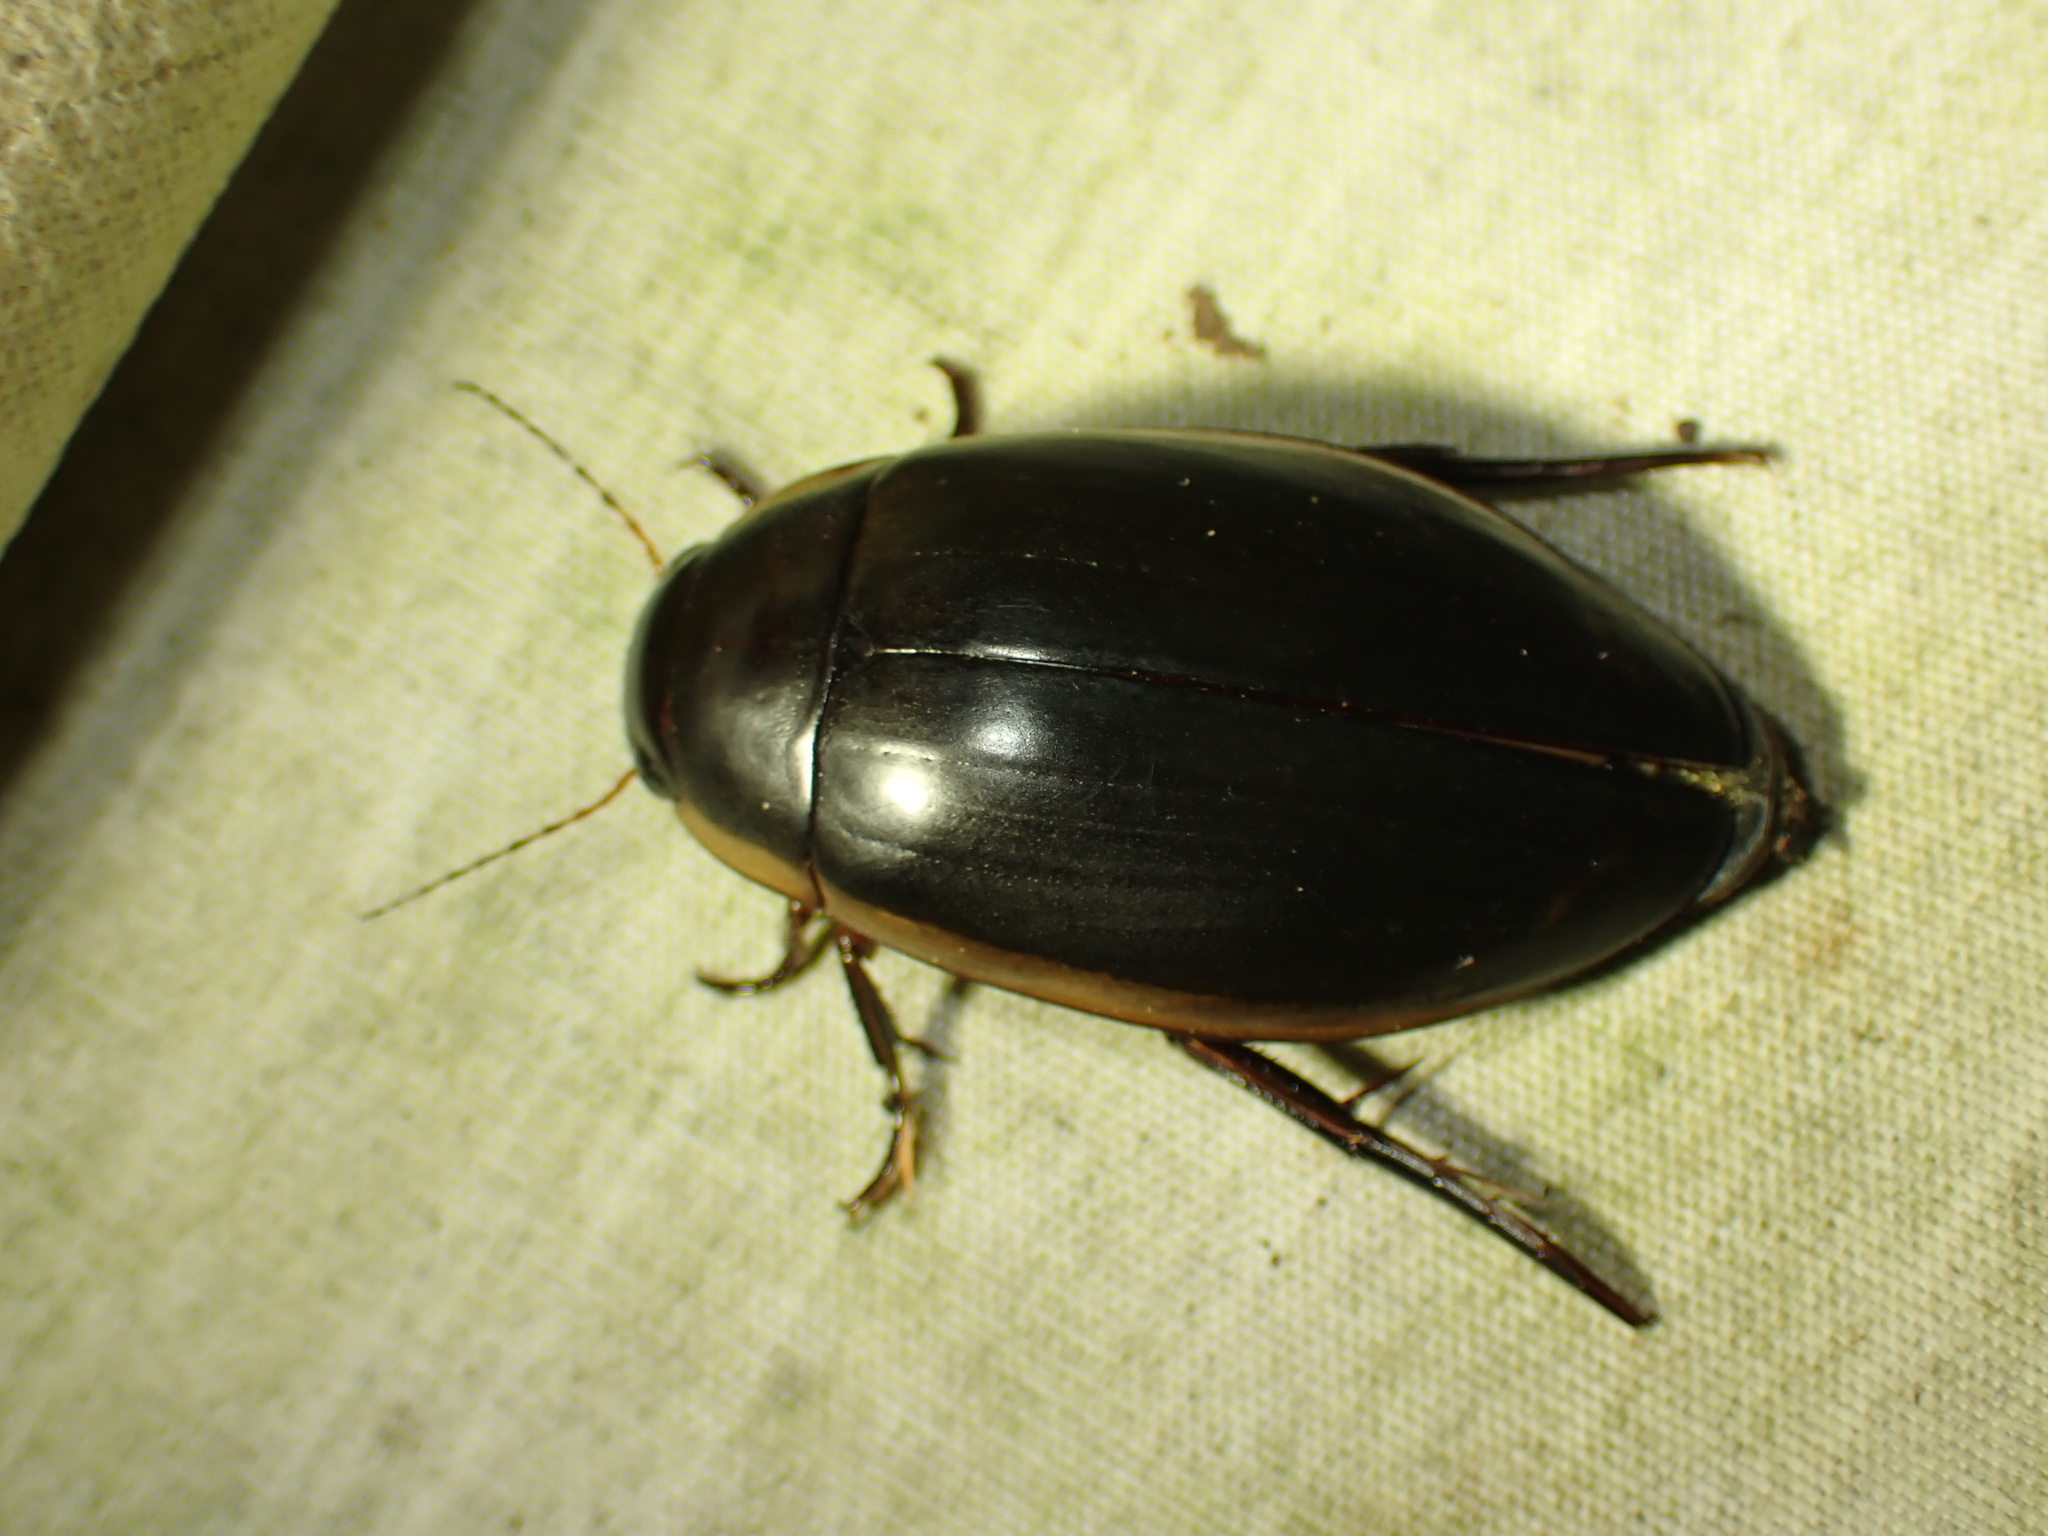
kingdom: Animalia
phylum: Arthropoda
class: Insecta
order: Coleoptera
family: Dytiscidae
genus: Dytiscus
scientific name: Dytiscus verticalis
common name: Vertical diving beetle
